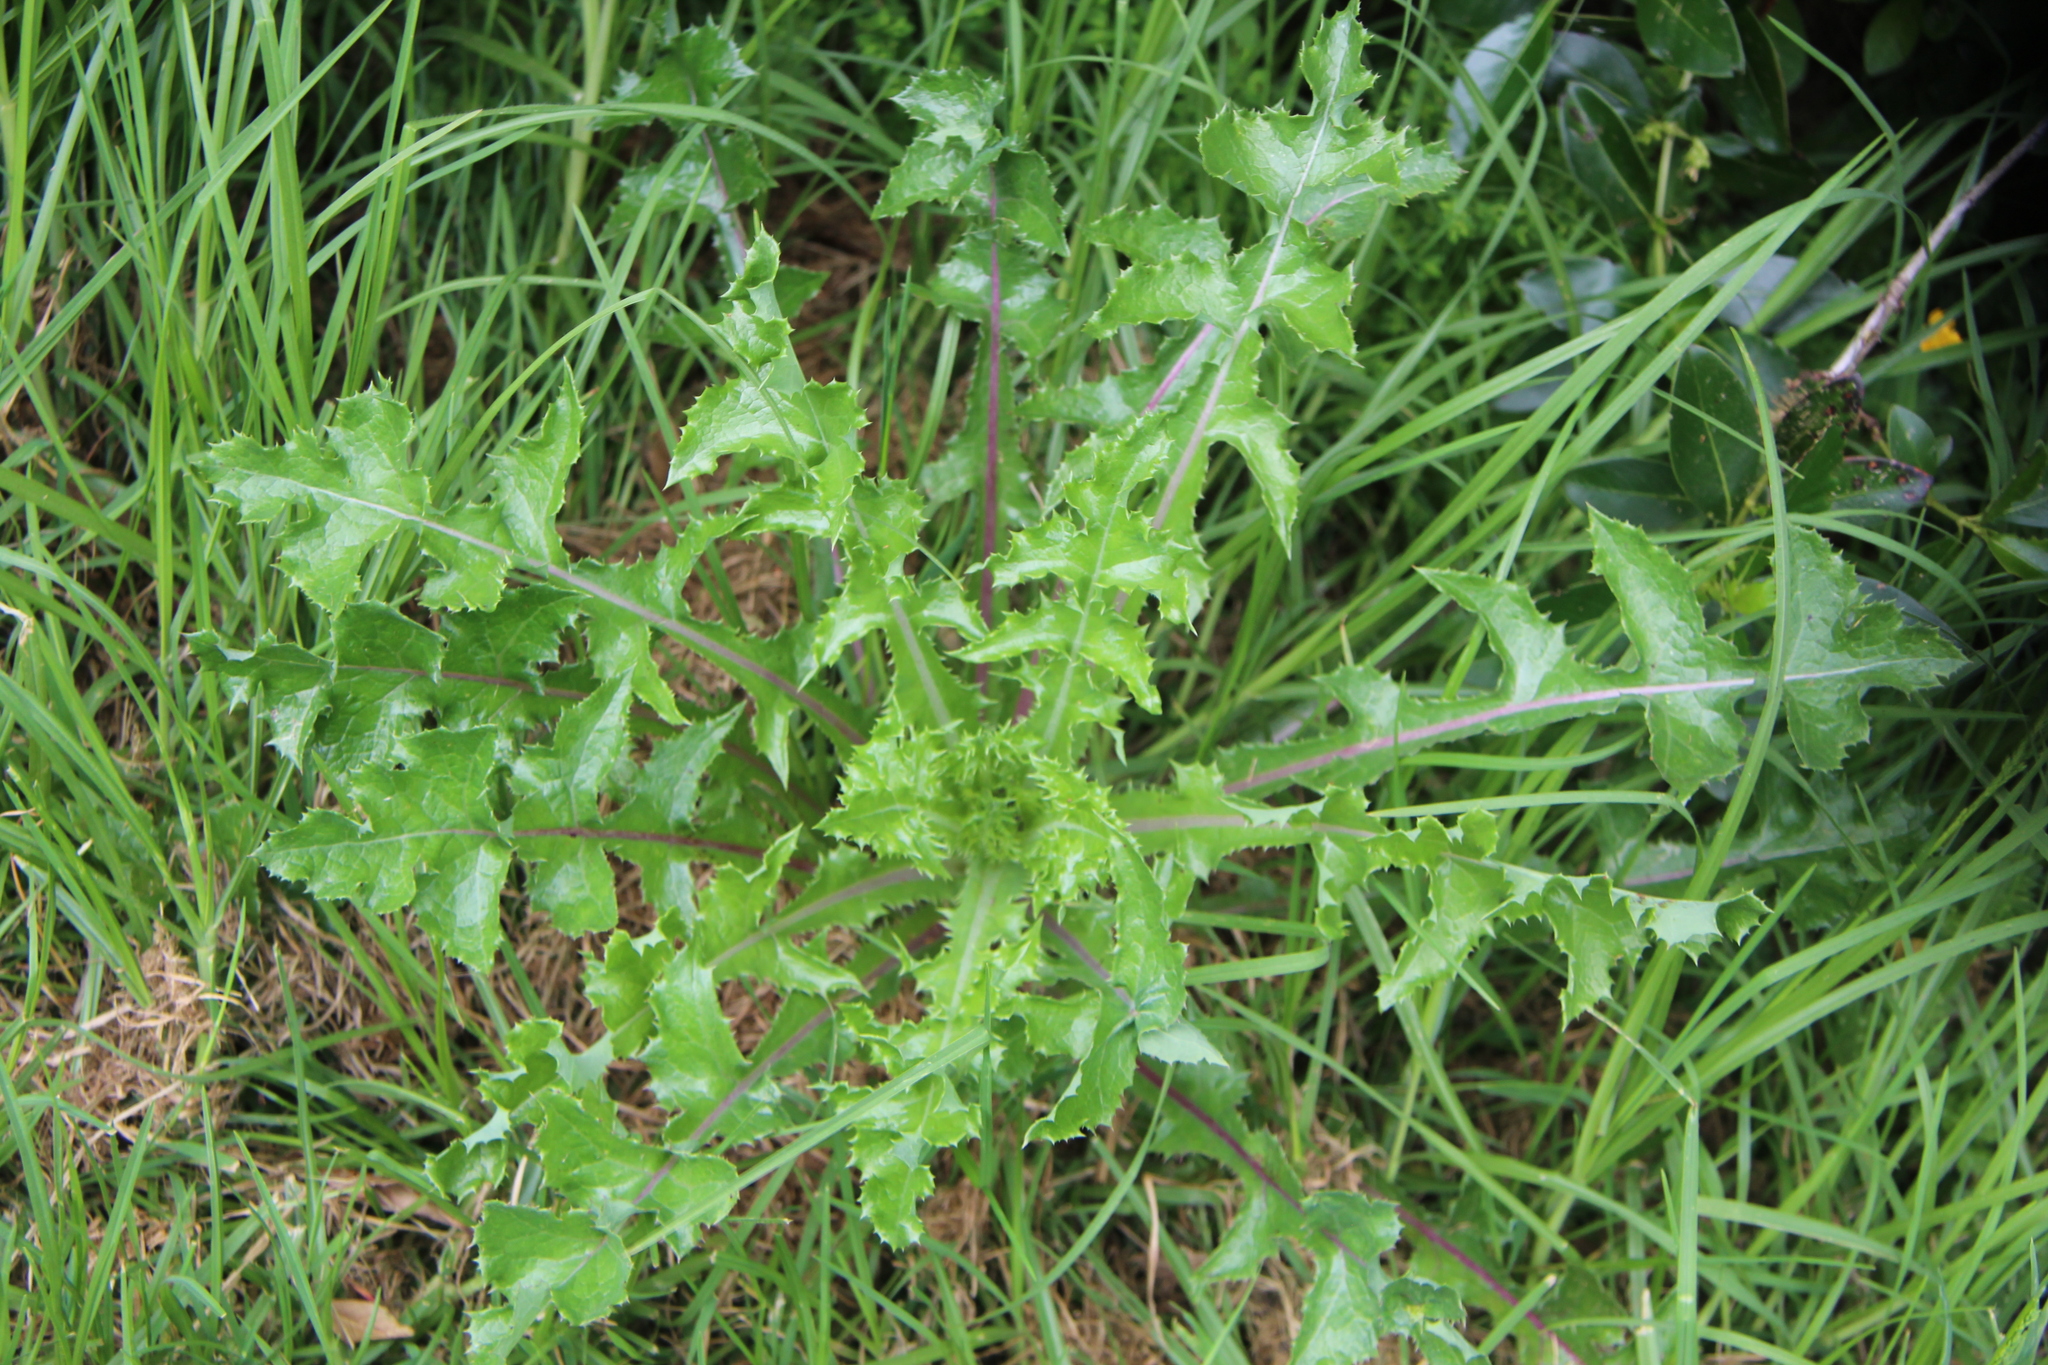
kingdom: Plantae
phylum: Tracheophyta
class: Magnoliopsida
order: Asterales
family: Asteraceae
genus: Sonchus
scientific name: Sonchus asper
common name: Prickly sow-thistle
